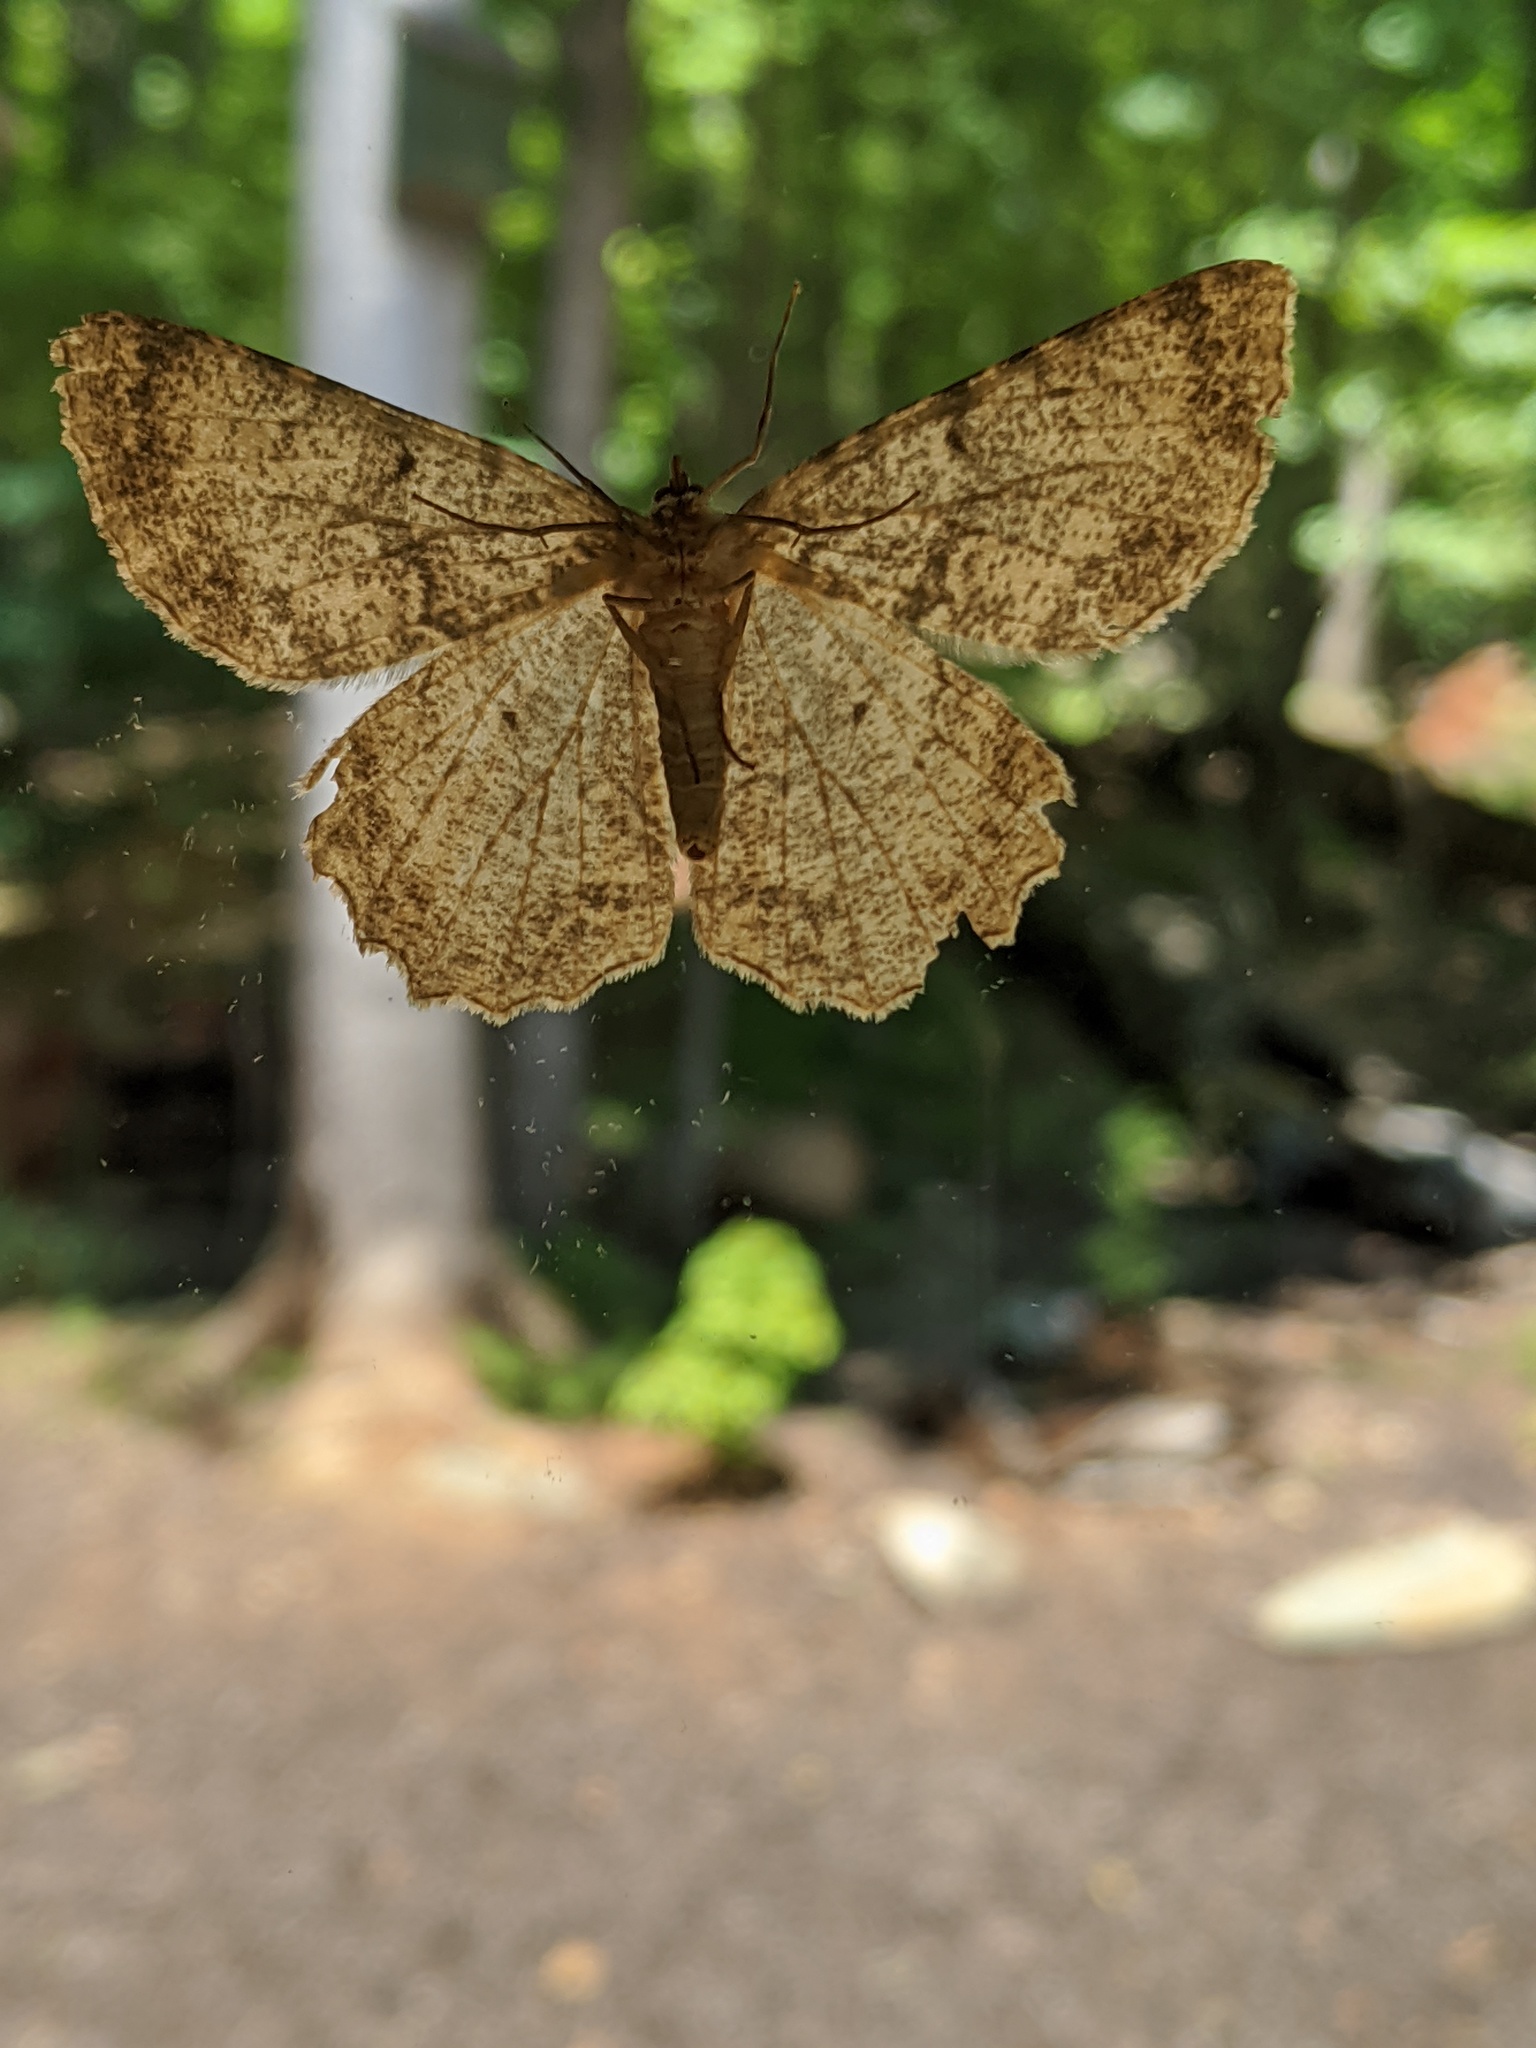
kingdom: Animalia
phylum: Arthropoda
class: Insecta
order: Lepidoptera
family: Geometridae
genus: Epimecis
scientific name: Epimecis hortaria
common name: Tulip-tree beauty
